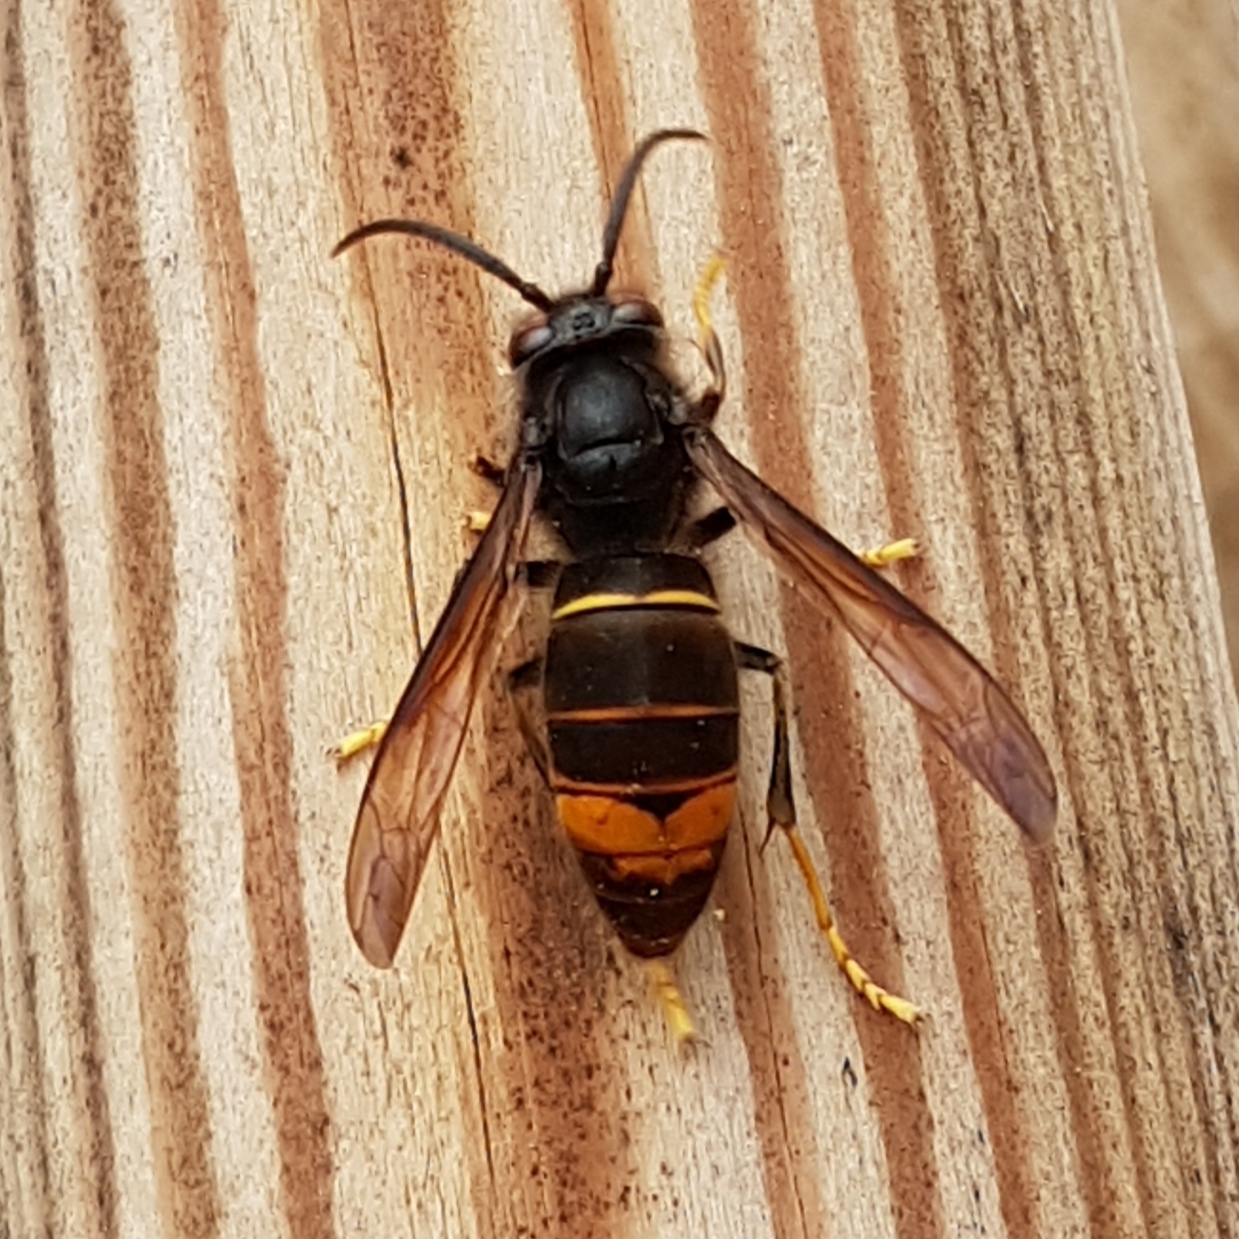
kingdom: Animalia
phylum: Arthropoda
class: Insecta
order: Hymenoptera
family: Vespidae
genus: Vespa
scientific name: Vespa velutina
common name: Asian hornet
